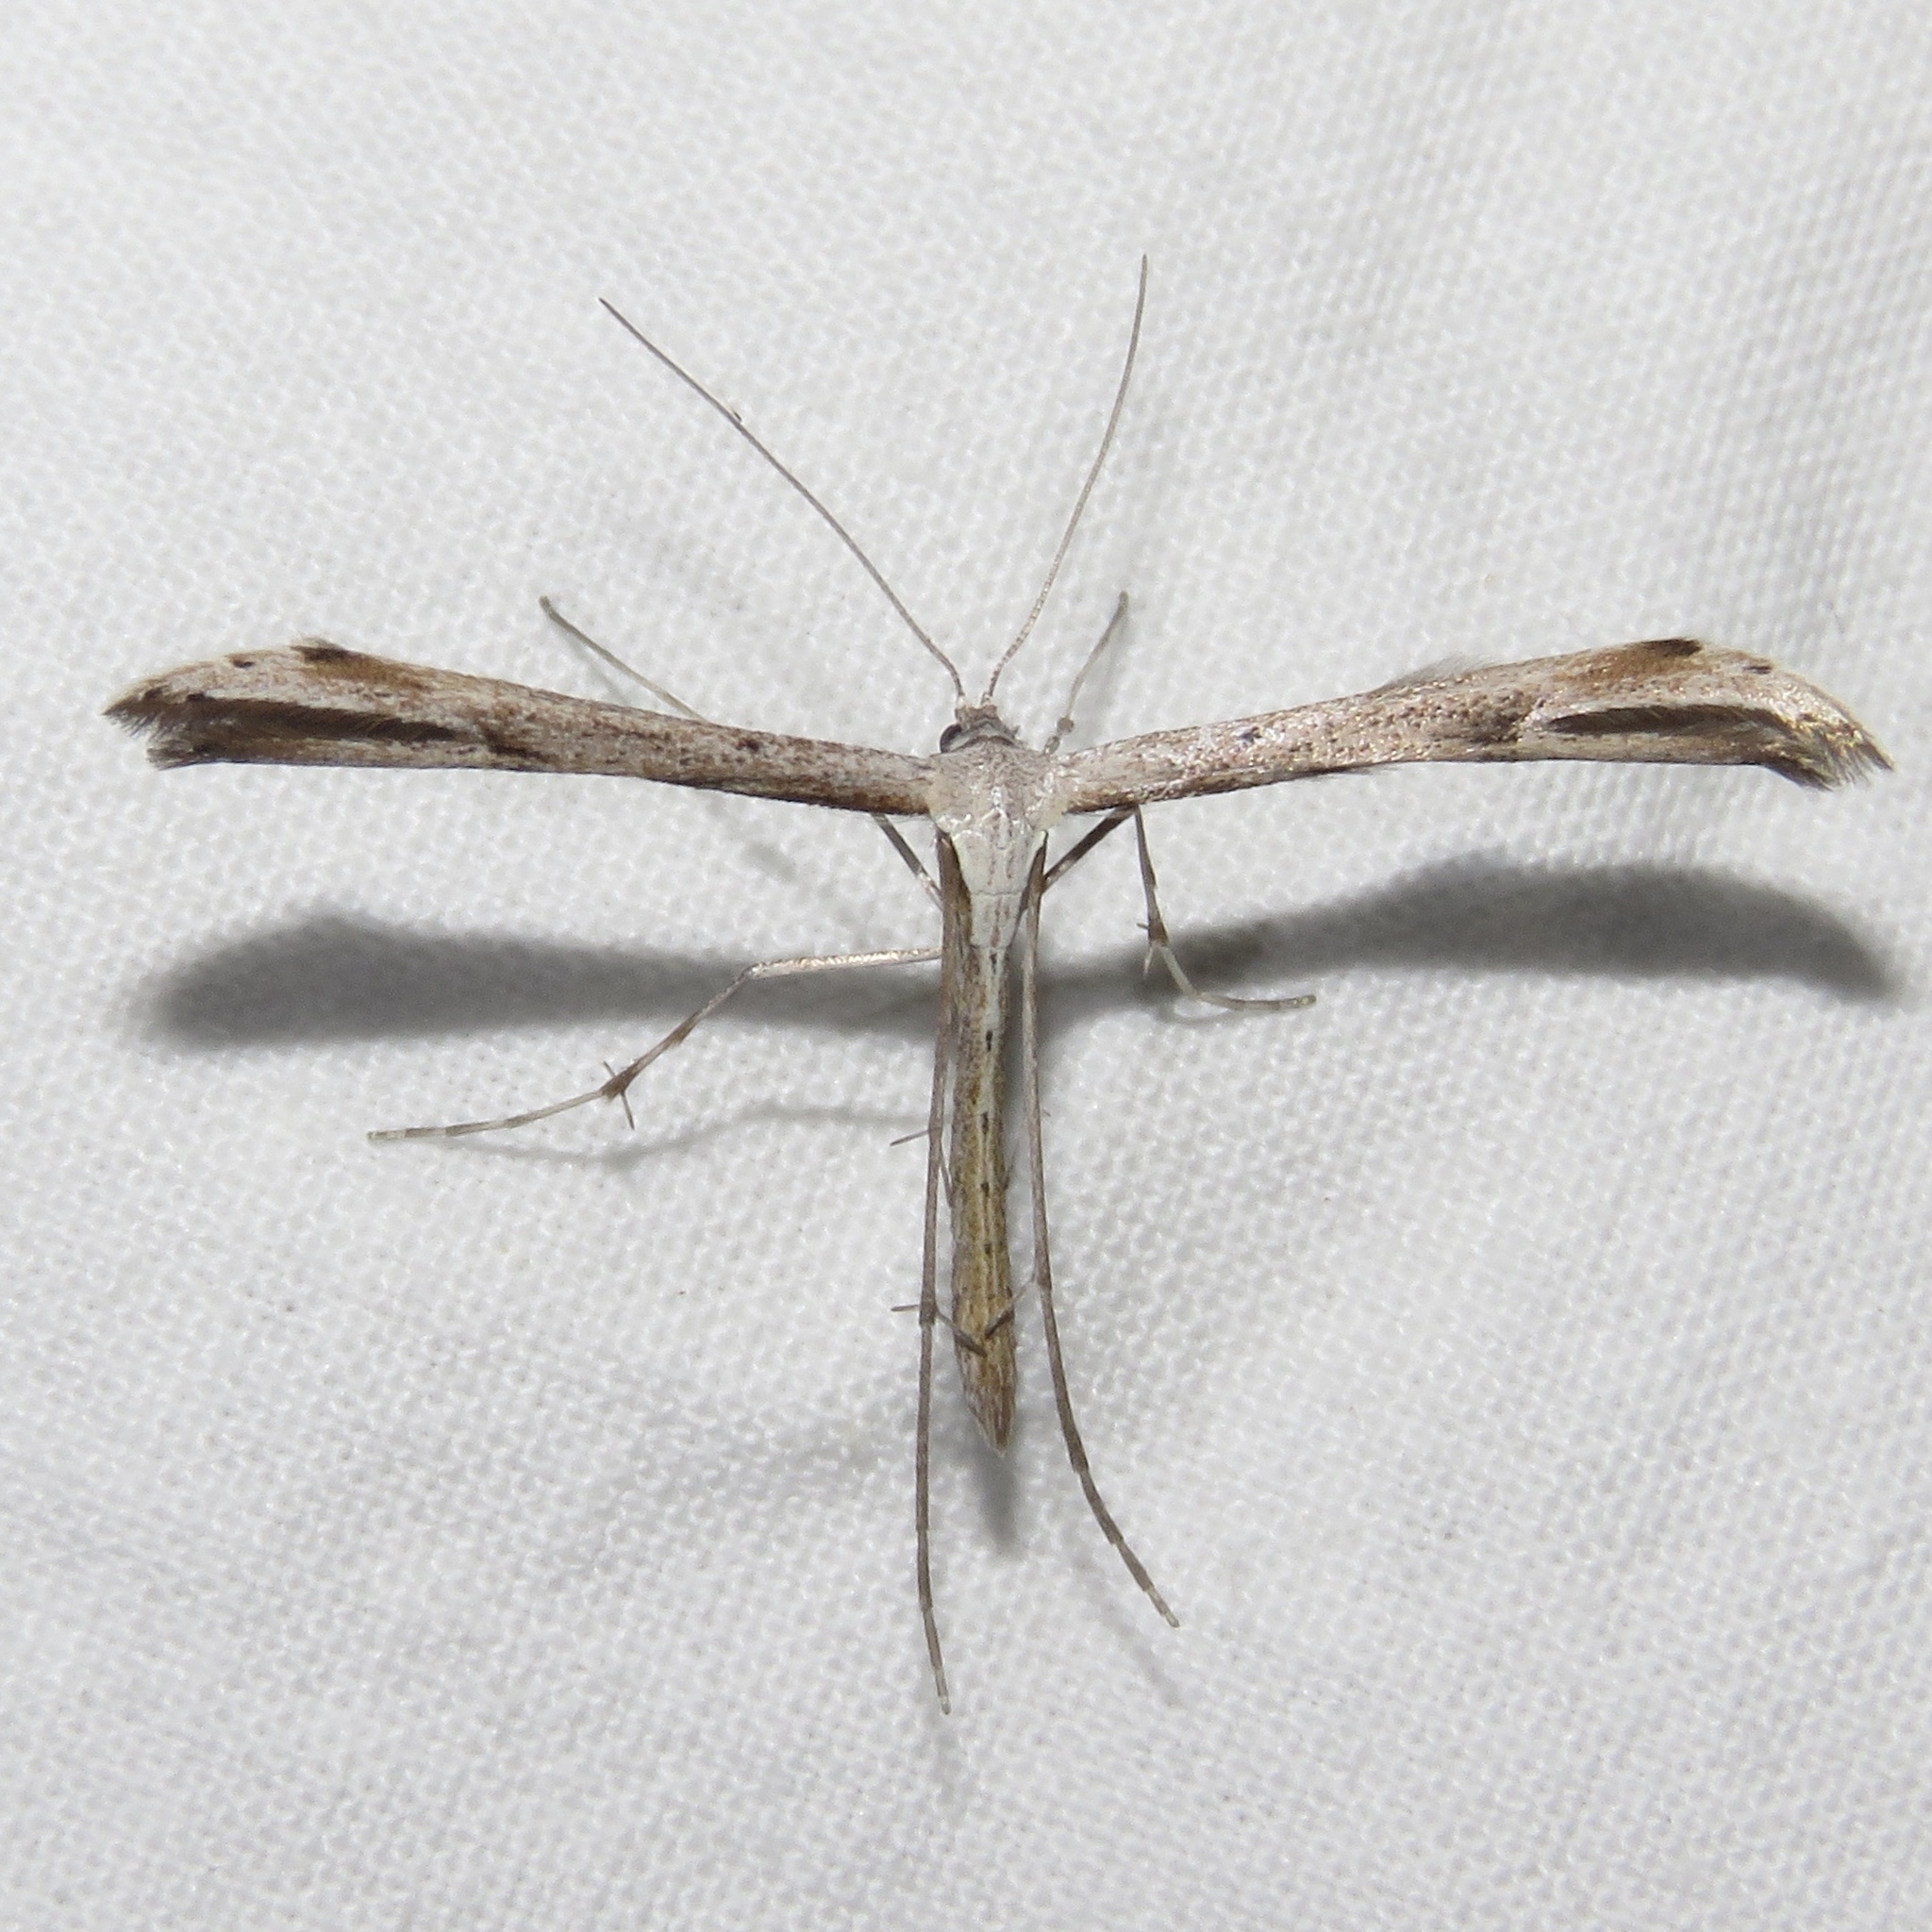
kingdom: Animalia
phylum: Arthropoda
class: Insecta
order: Lepidoptera
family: Pterophoridae
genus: Emmelina
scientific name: Emmelina monodactyla
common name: Common plume
